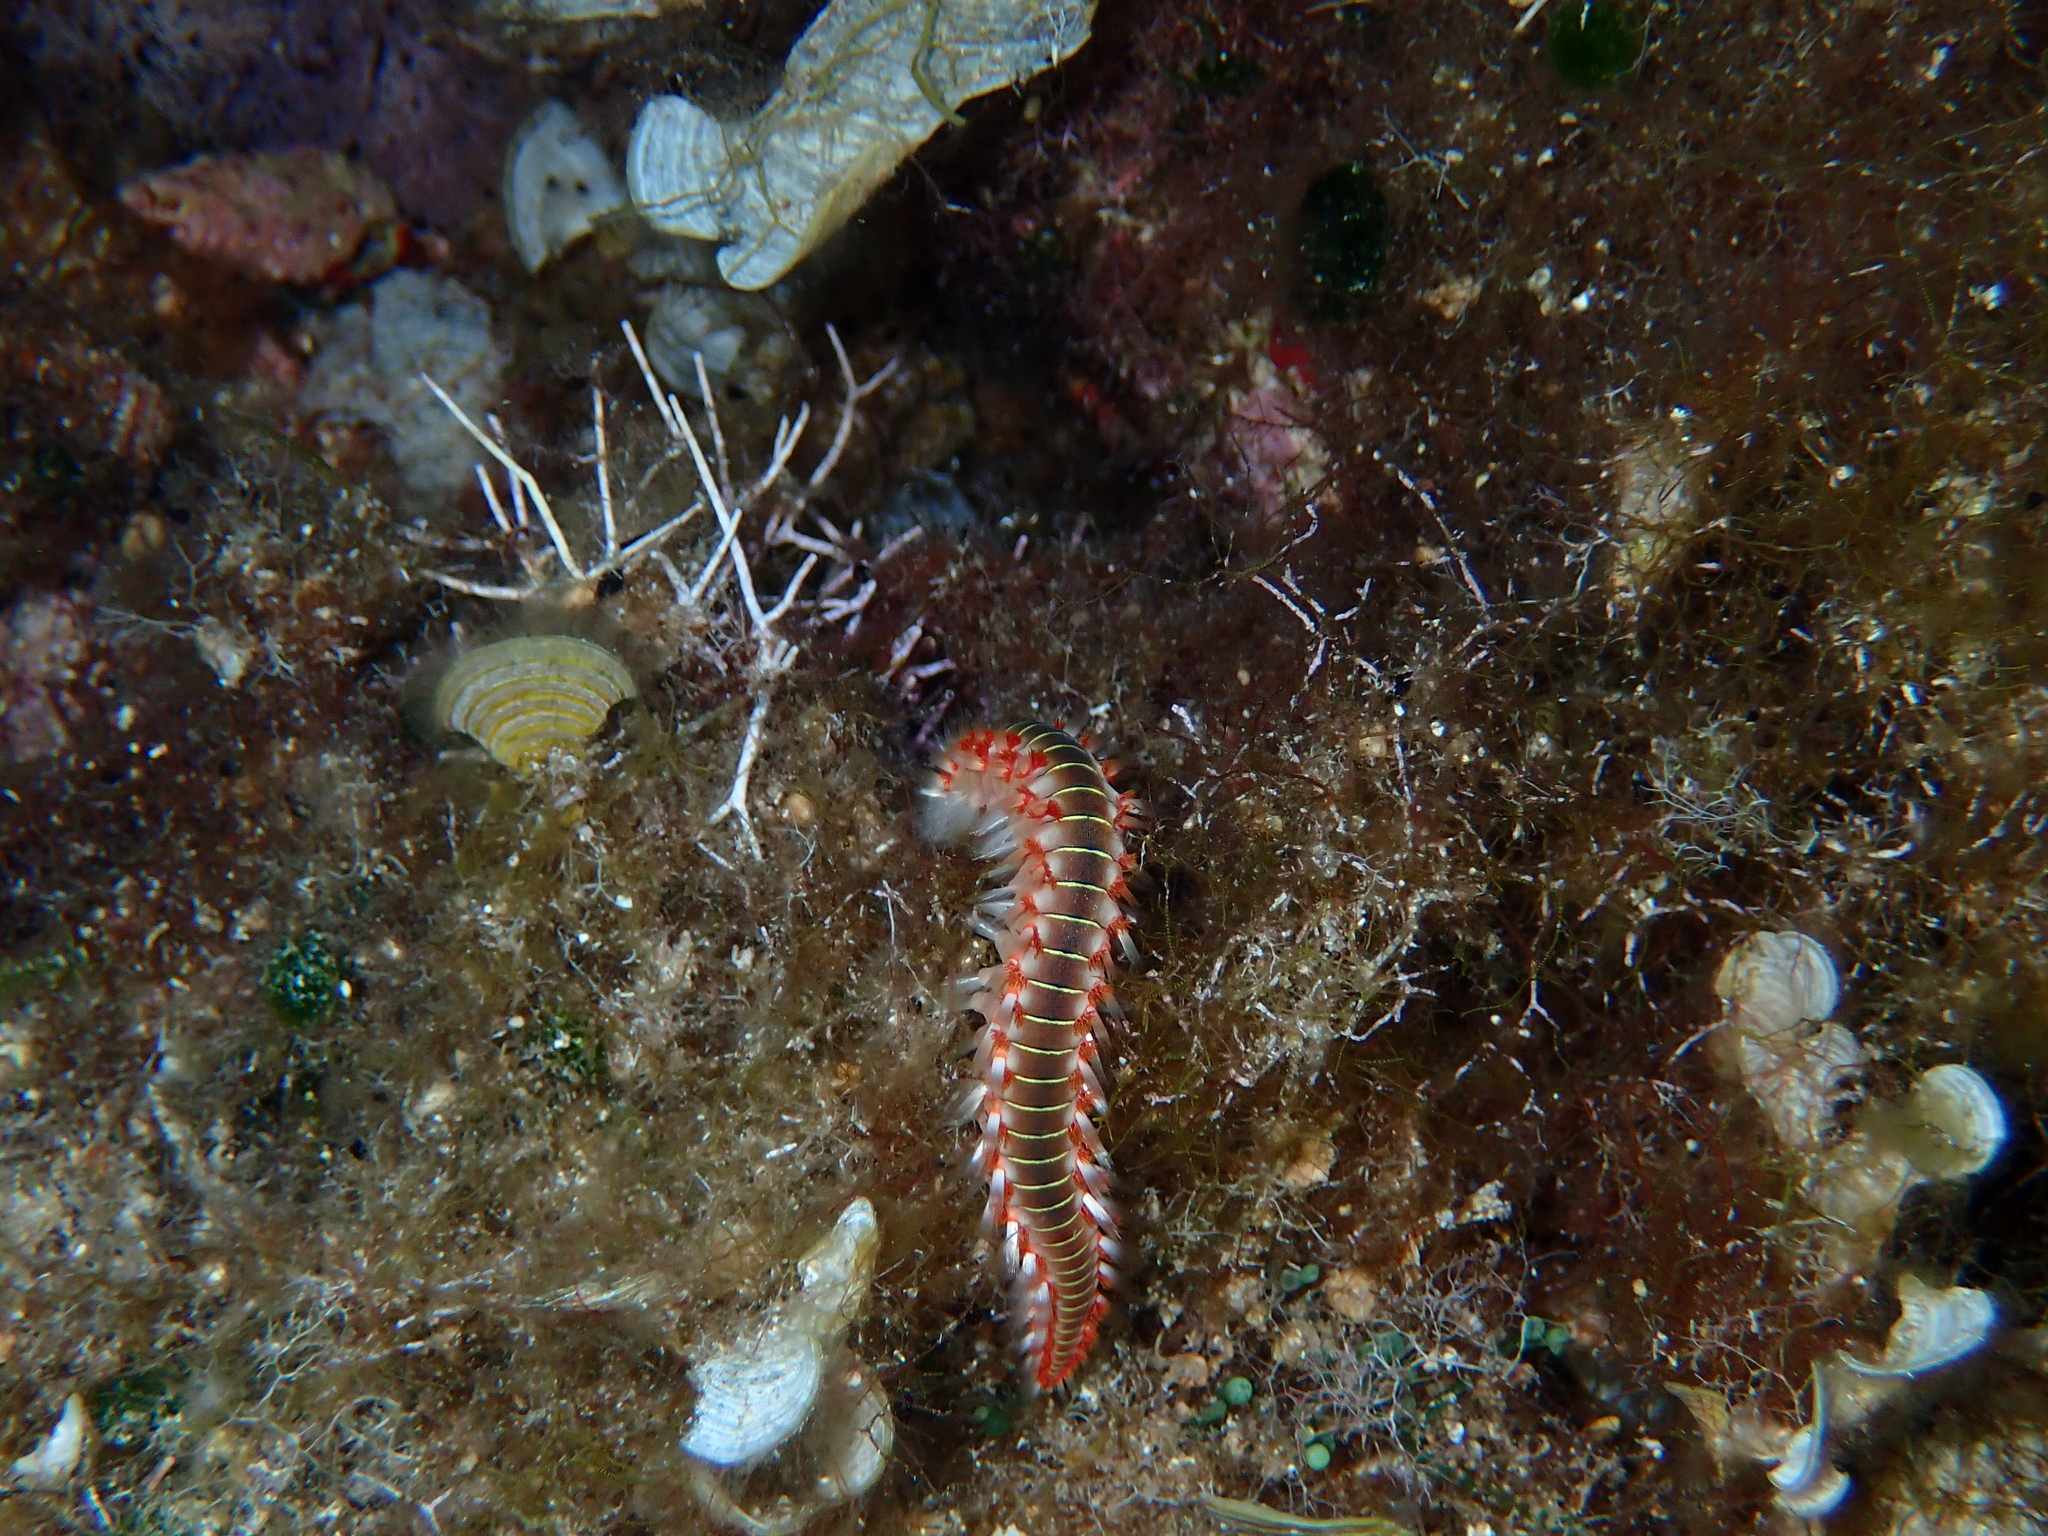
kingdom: Animalia
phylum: Annelida
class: Polychaeta
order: Amphinomida
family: Amphinomidae
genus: Hermodice
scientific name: Hermodice carunculata
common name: Bearded fireworm
